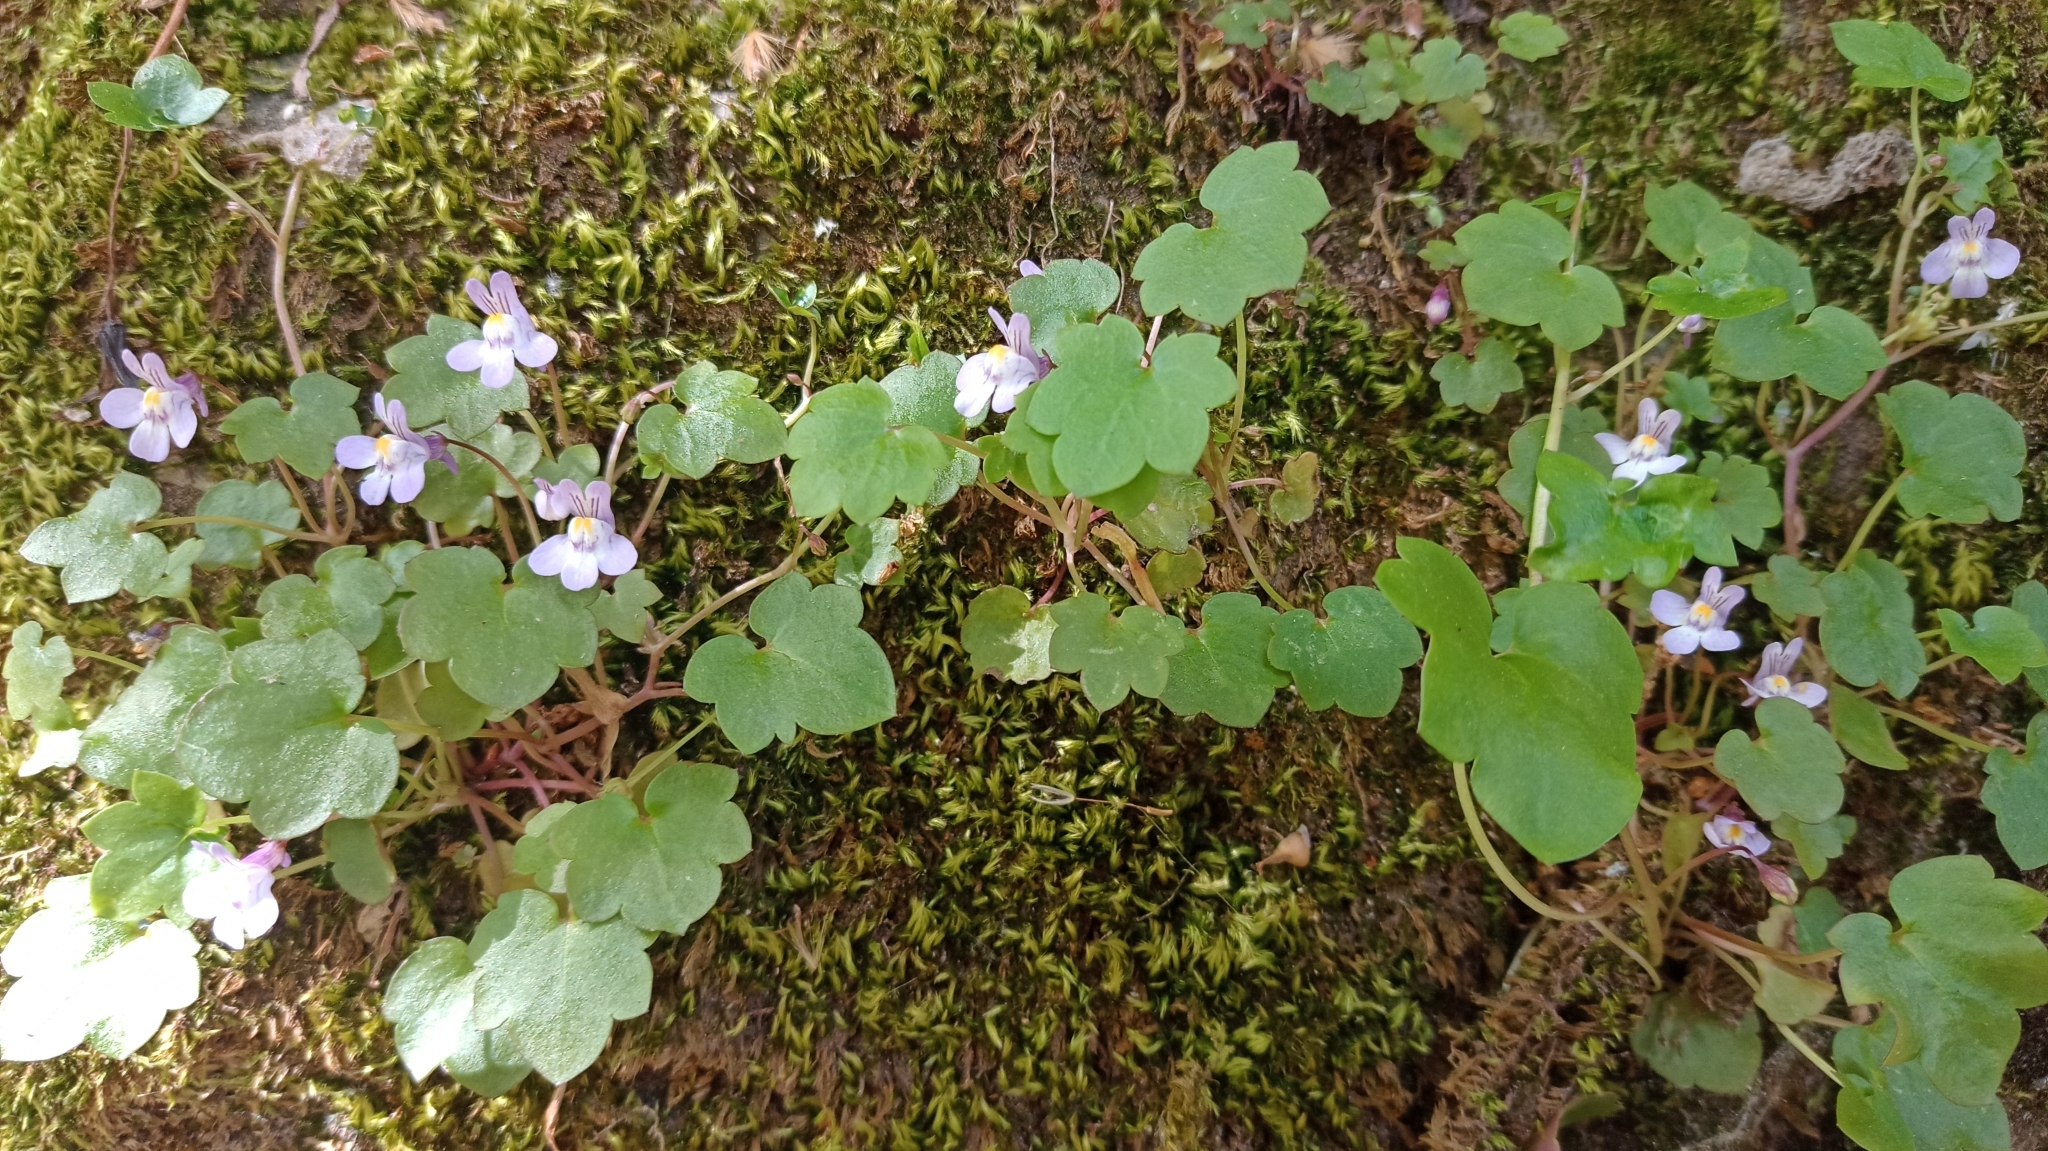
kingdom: Plantae
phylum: Tracheophyta
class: Magnoliopsida
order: Lamiales
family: Plantaginaceae
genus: Cymbalaria
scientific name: Cymbalaria muralis
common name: Ivy-leaved toadflax
